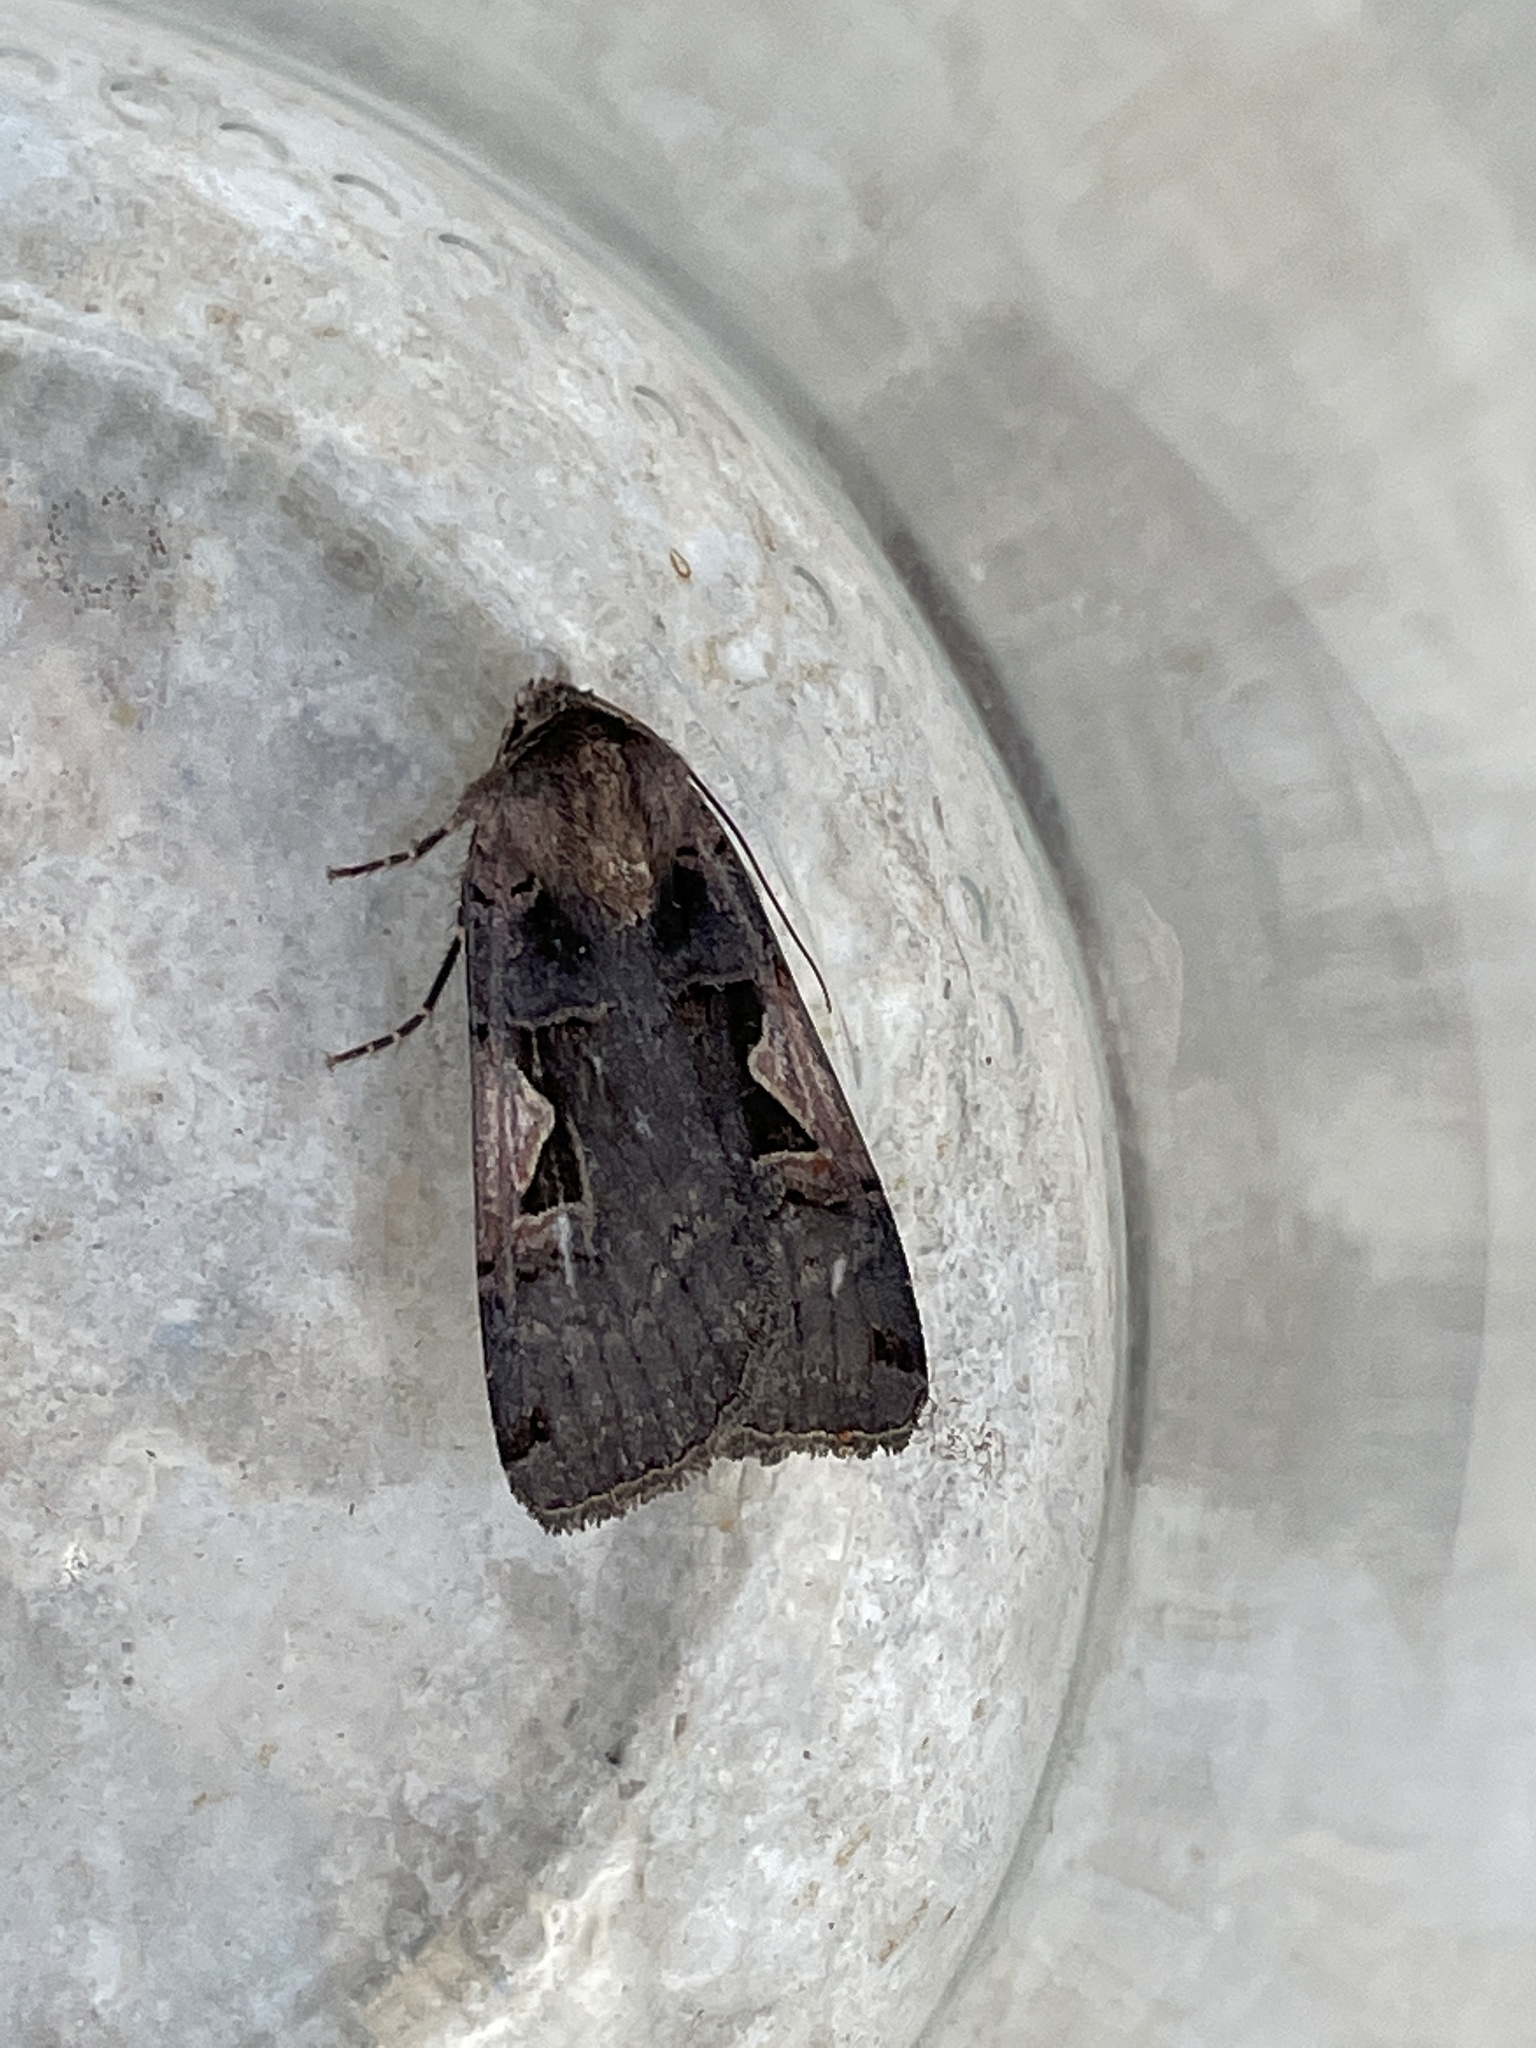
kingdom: Animalia
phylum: Arthropoda
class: Insecta
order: Lepidoptera
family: Noctuidae
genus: Xestia
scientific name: Xestia c-nigrum
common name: Setaceous hebrew character
